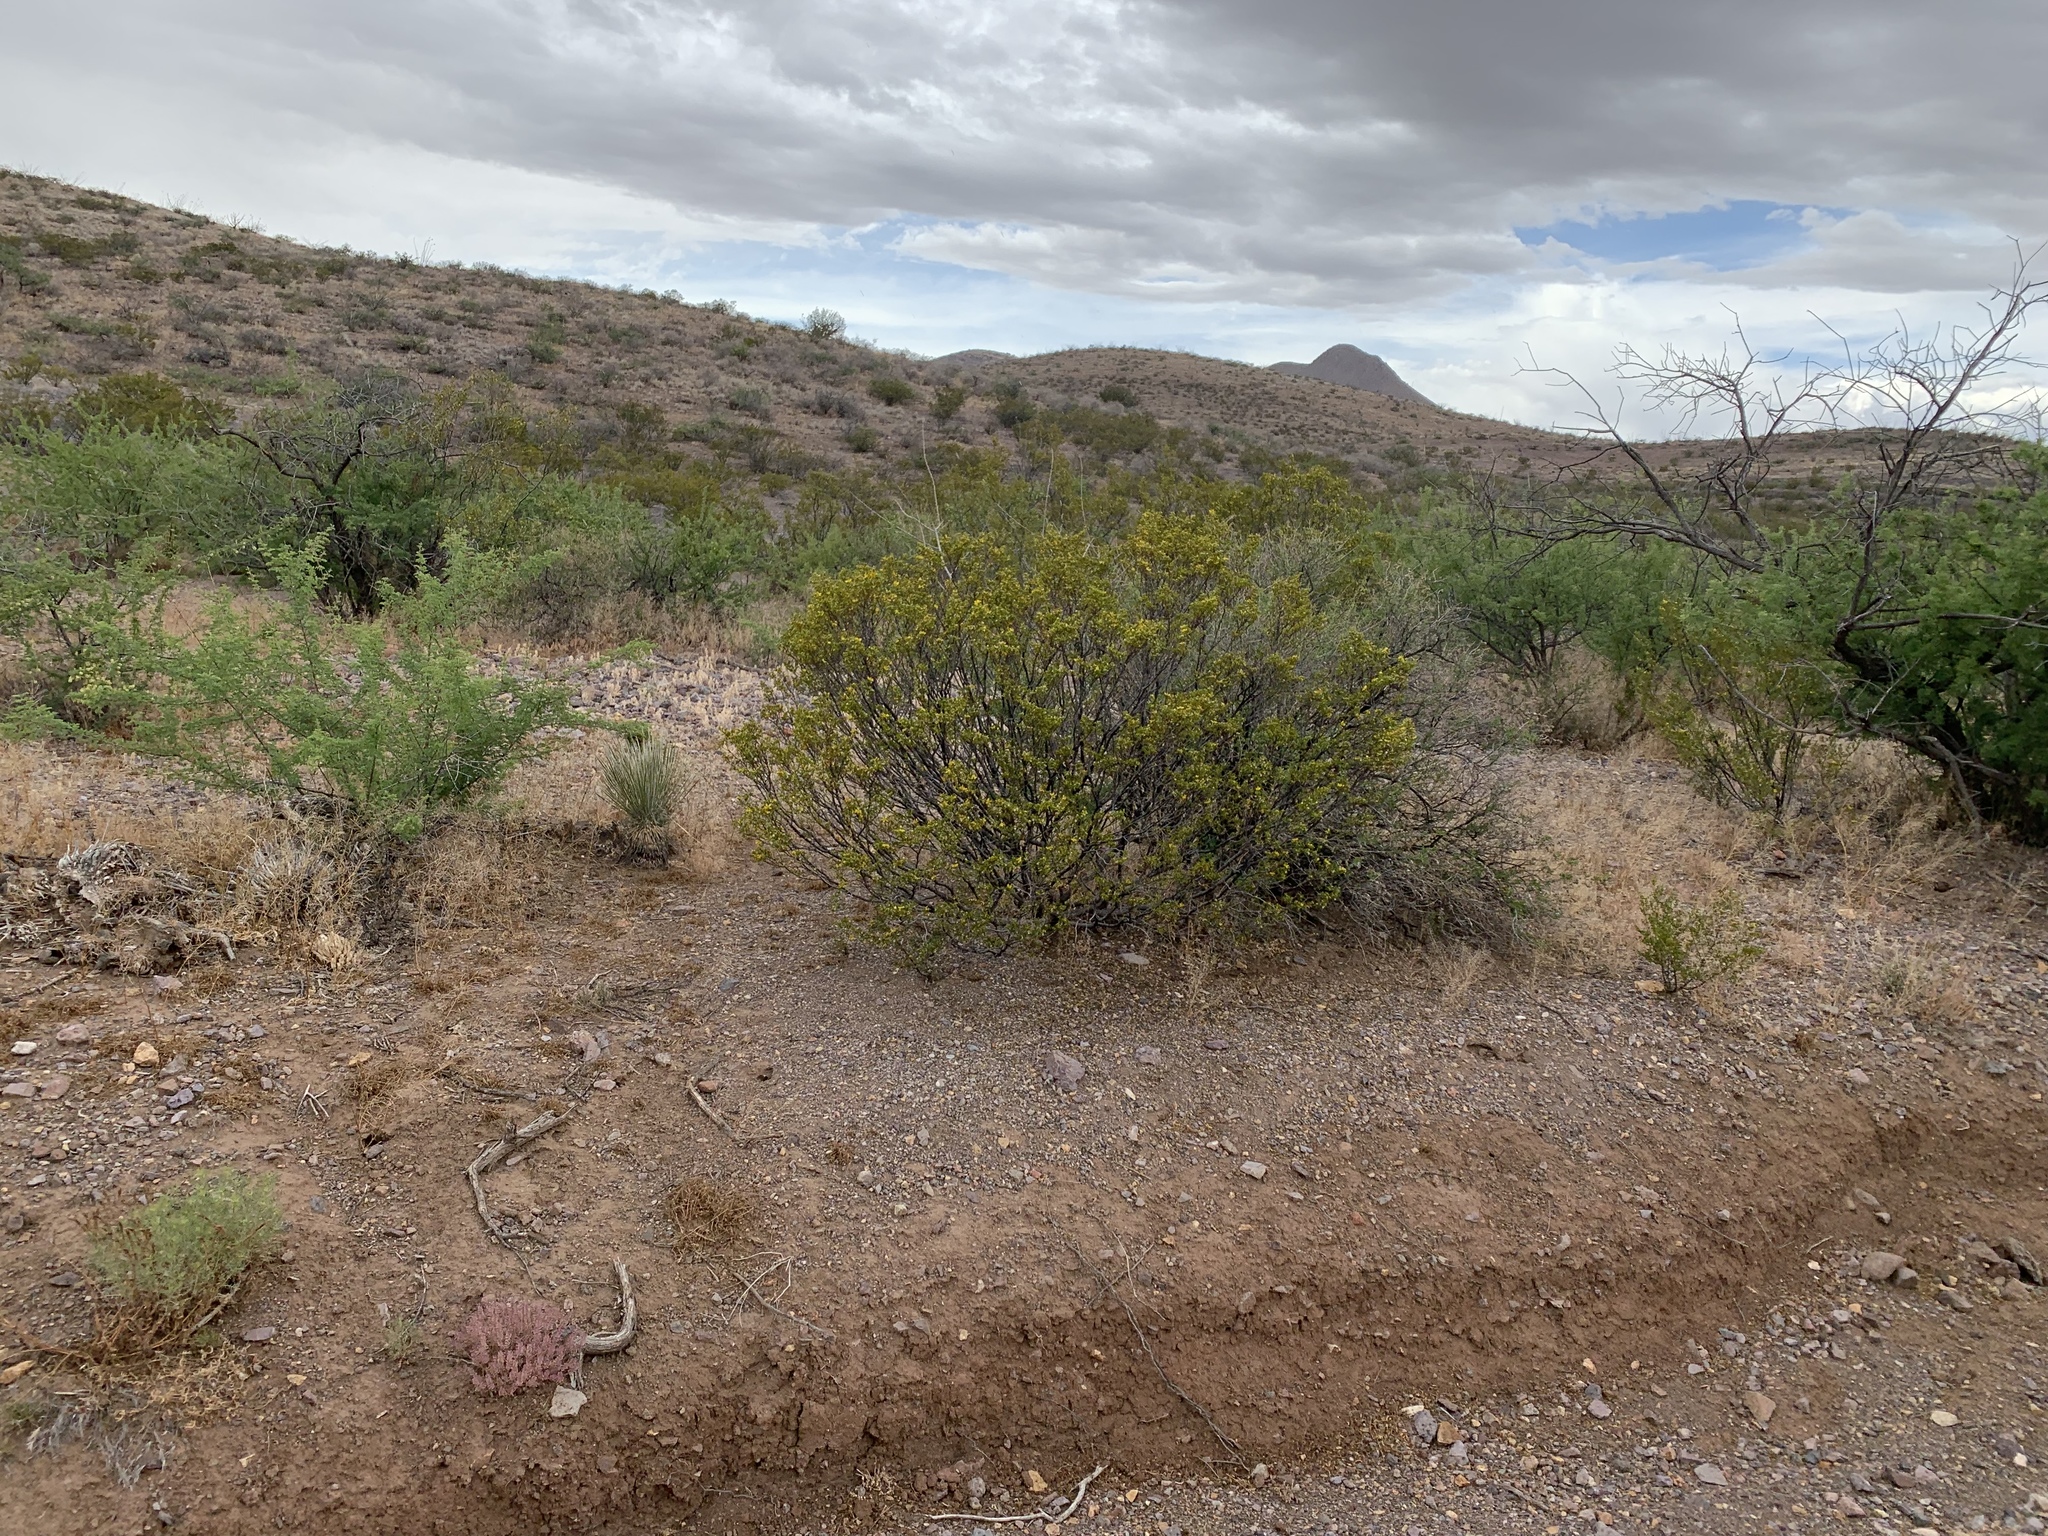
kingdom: Plantae
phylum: Tracheophyta
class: Magnoliopsida
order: Zygophyllales
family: Zygophyllaceae
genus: Larrea
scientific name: Larrea tridentata
